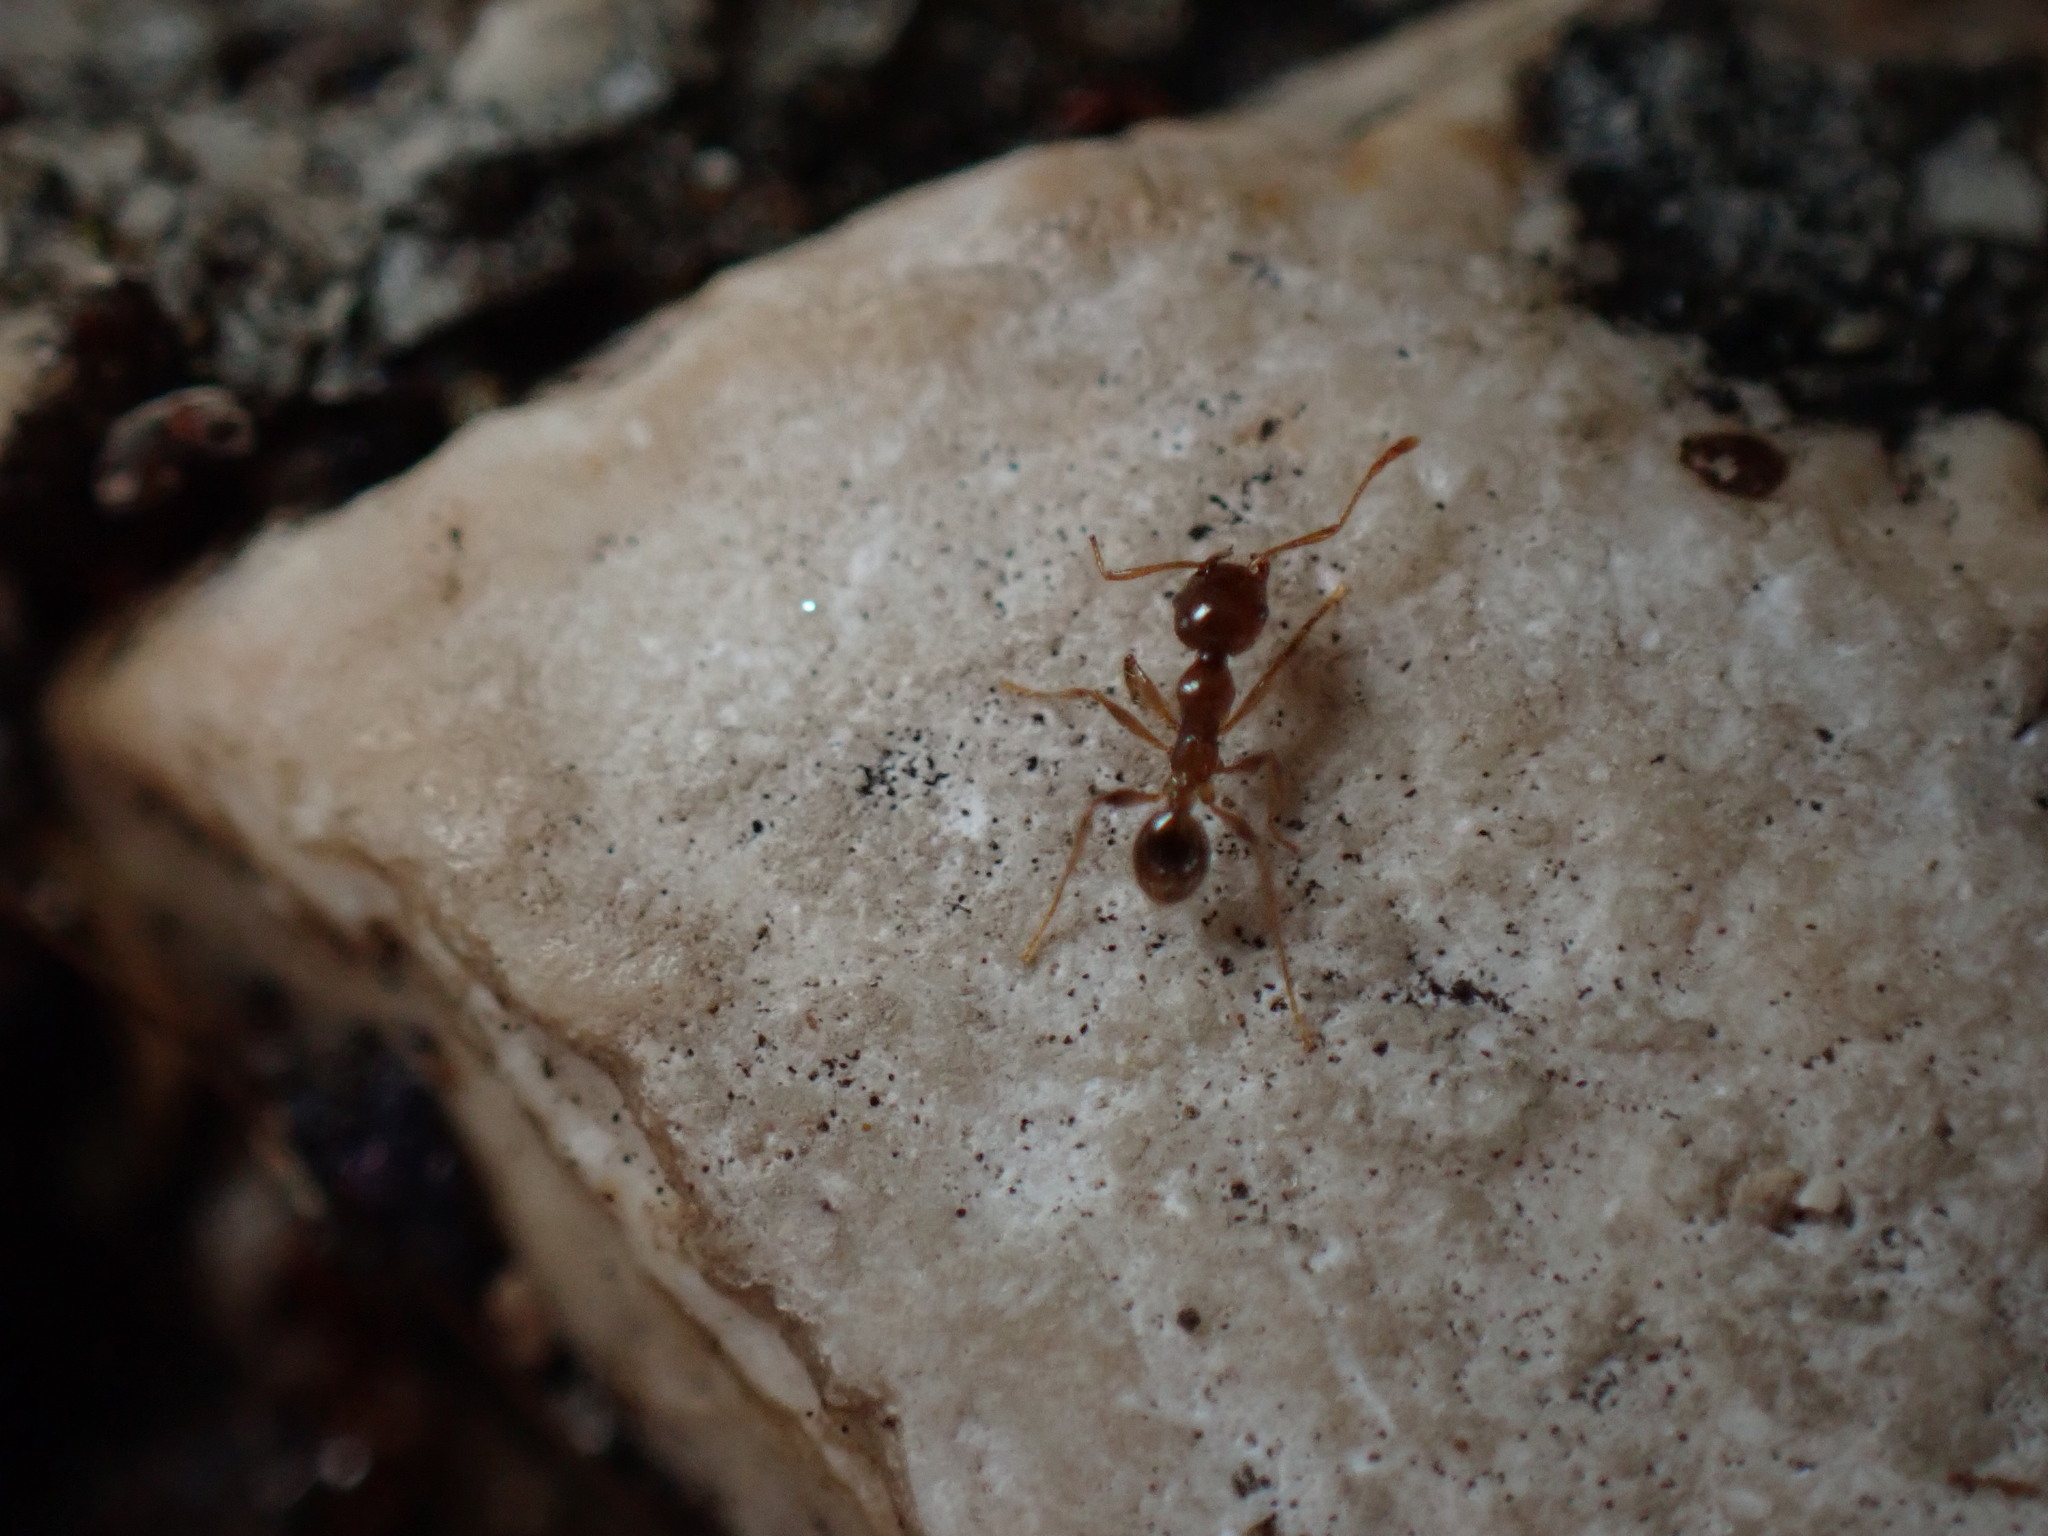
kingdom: Animalia
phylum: Arthropoda
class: Insecta
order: Hymenoptera
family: Formicidae
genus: Pheidole
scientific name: Pheidole pallidula
